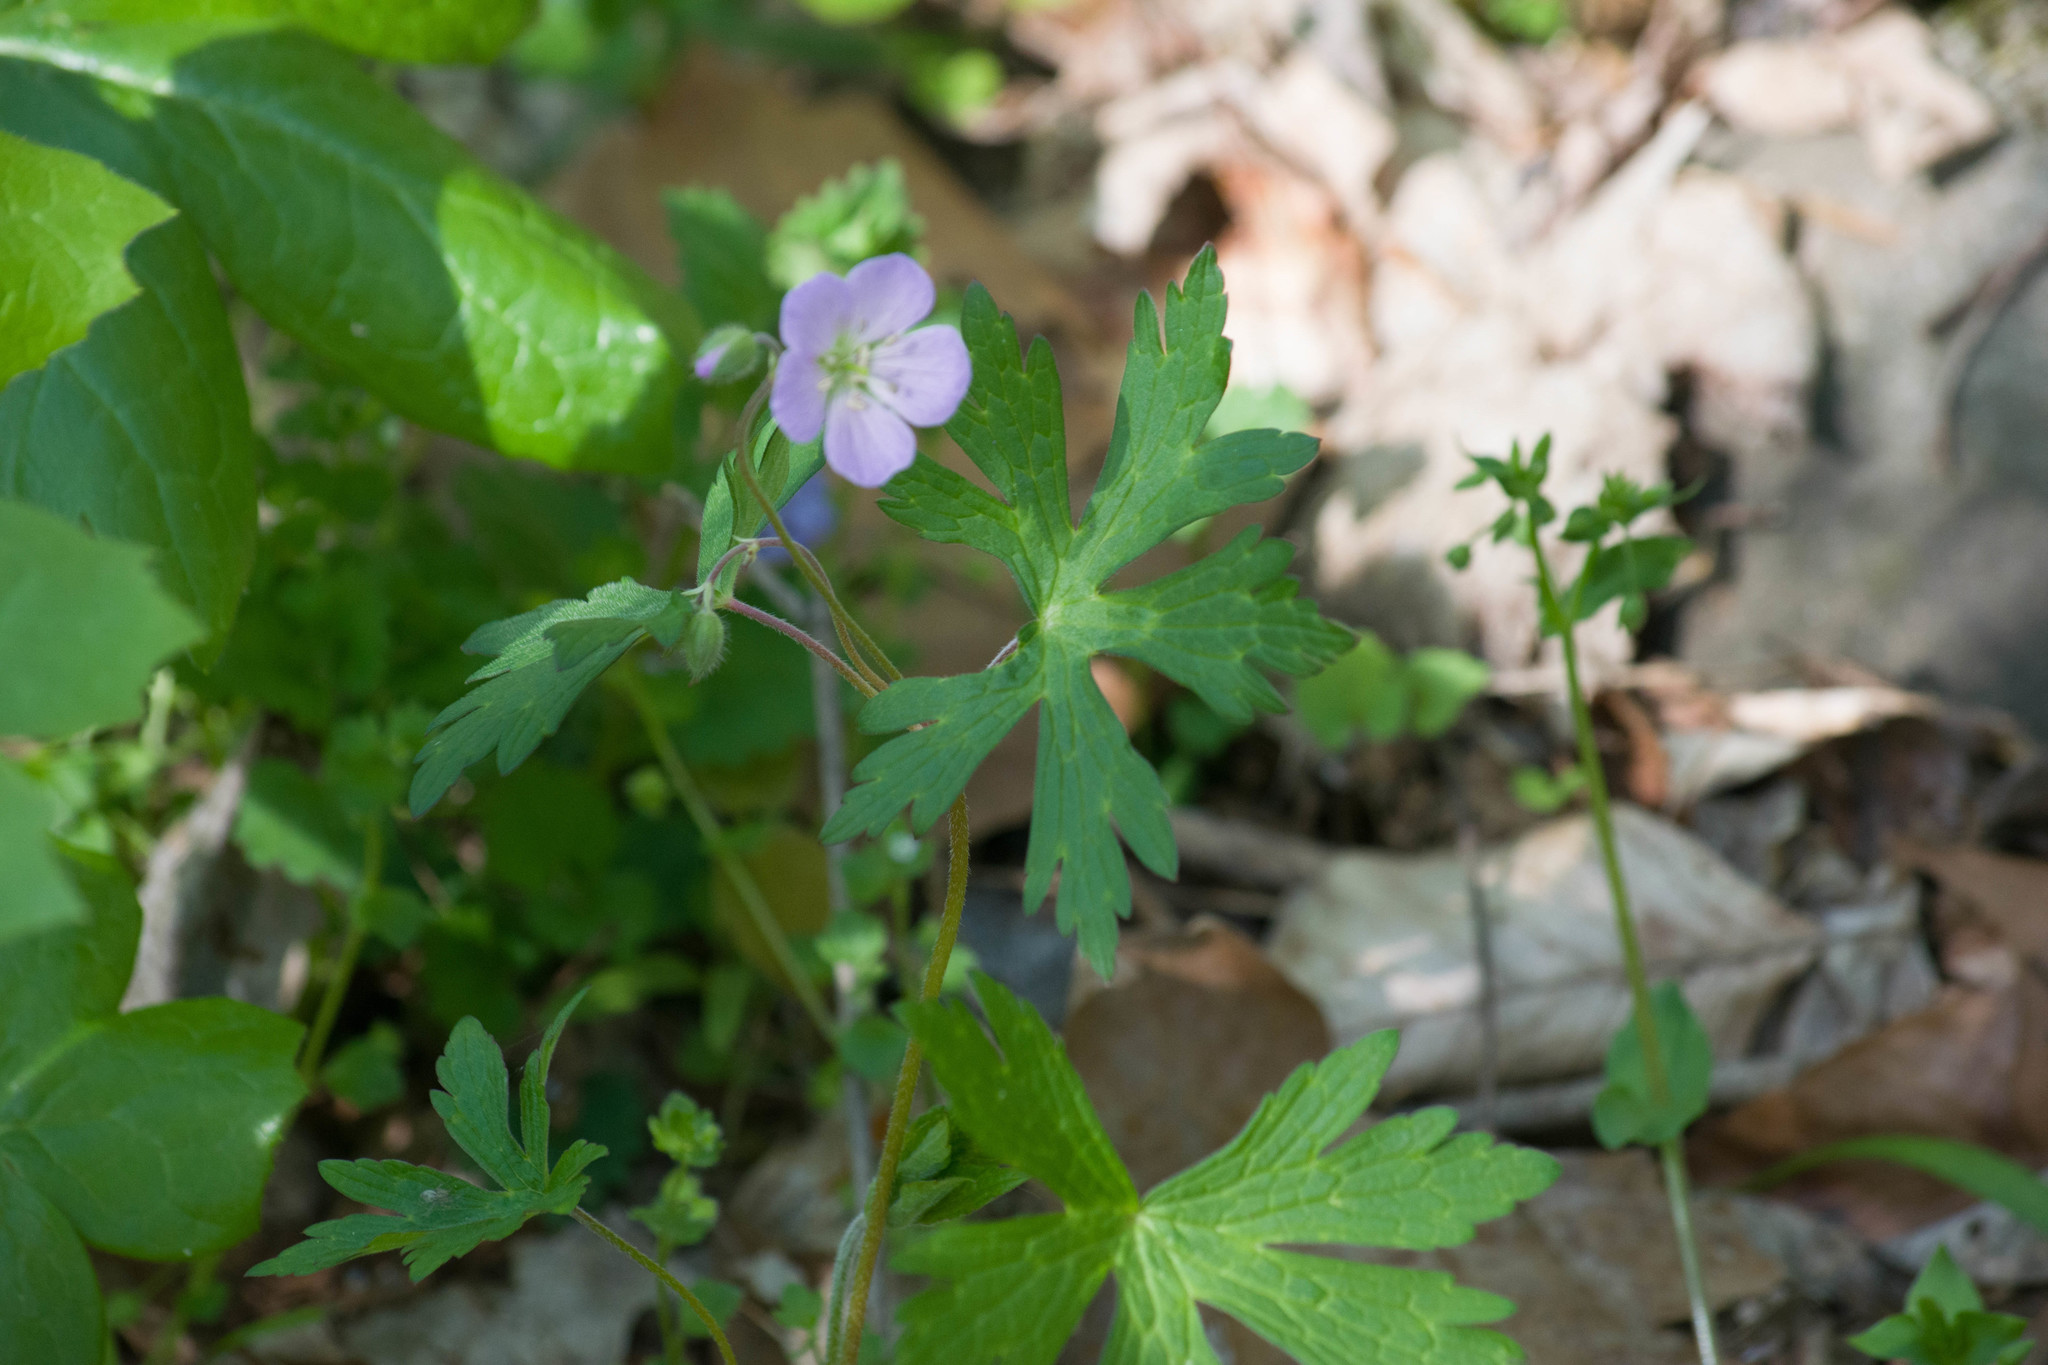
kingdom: Plantae
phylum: Tracheophyta
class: Magnoliopsida
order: Geraniales
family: Geraniaceae
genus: Geranium
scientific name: Geranium maculatum
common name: Spotted geranium
